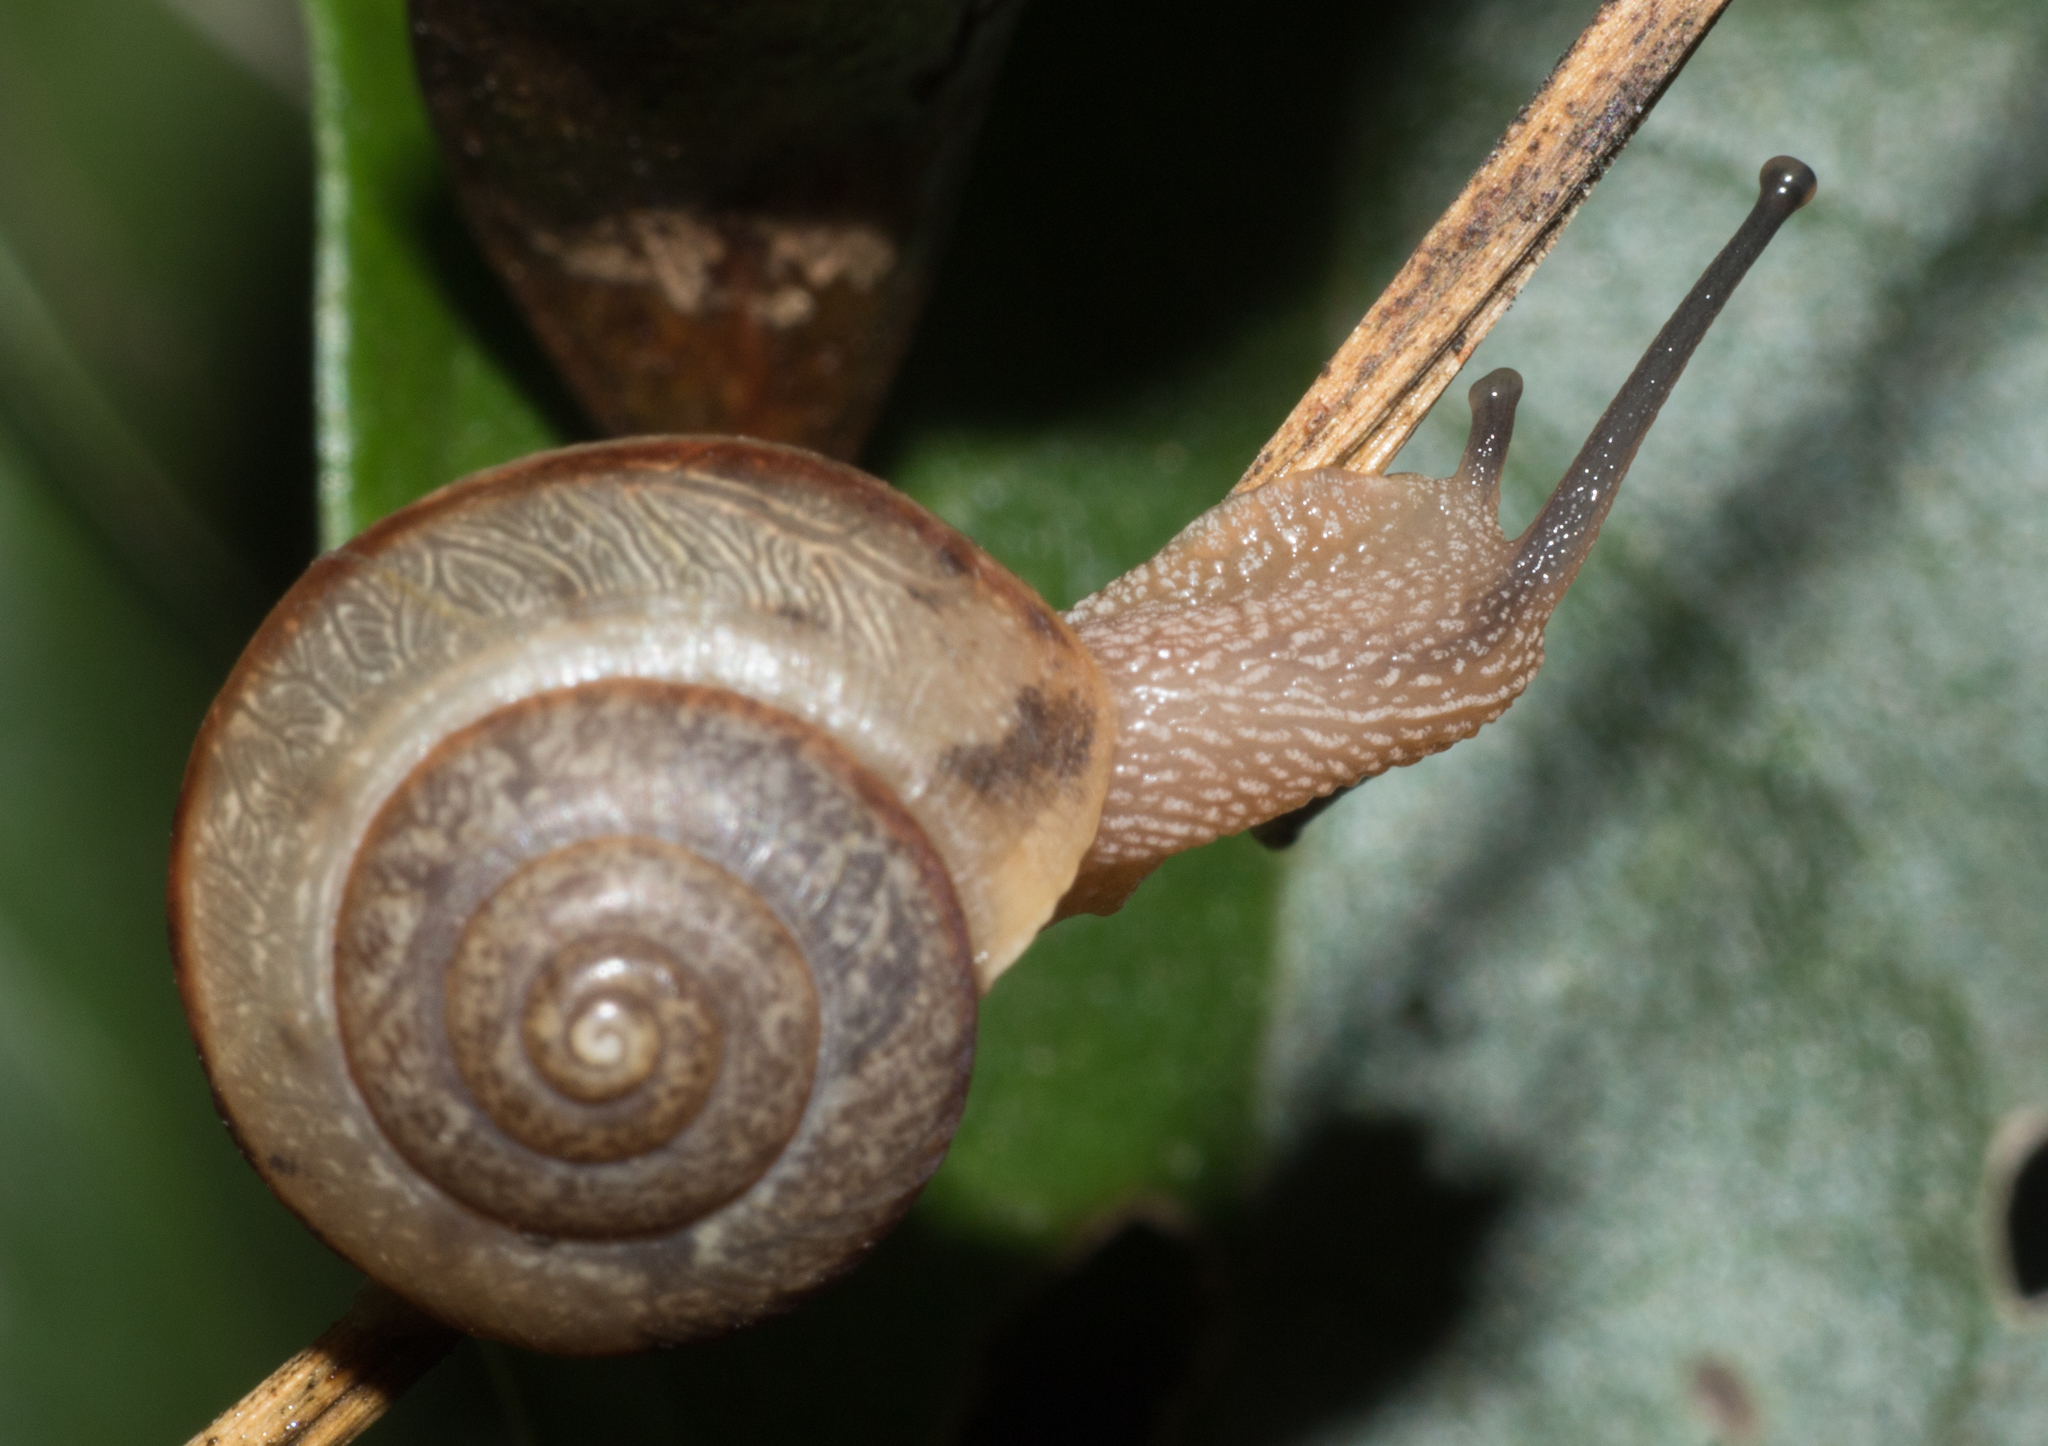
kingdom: Animalia
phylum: Mollusca
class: Gastropoda
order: Stylommatophora
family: Camaenidae
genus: Bradybaena
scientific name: Bradybaena similaris
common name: Asian trampsnail
